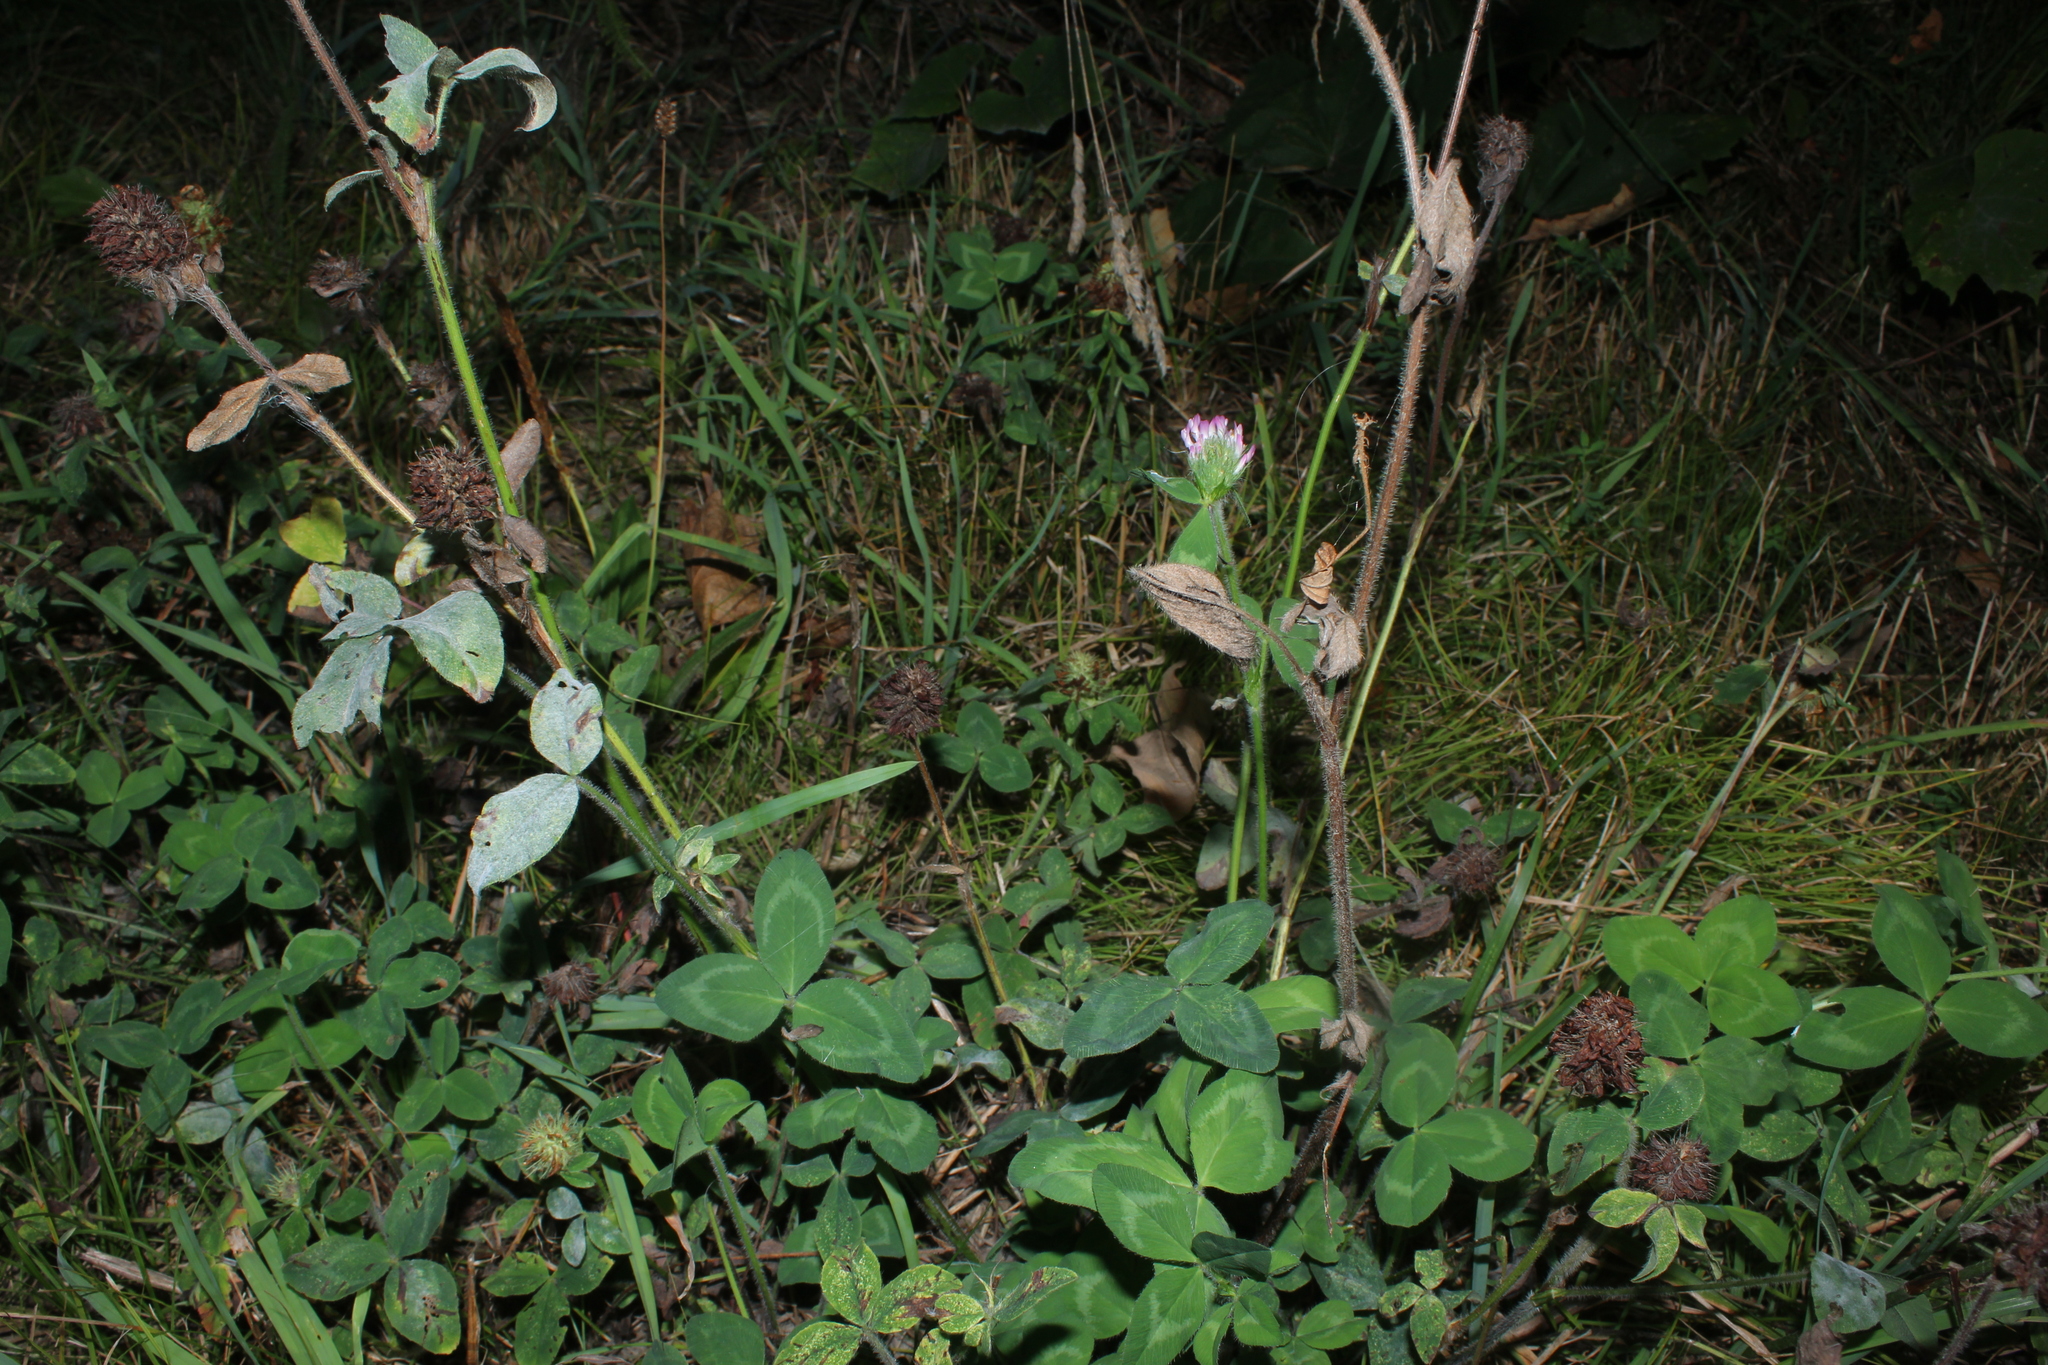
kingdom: Plantae
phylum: Tracheophyta
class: Magnoliopsida
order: Fabales
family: Fabaceae
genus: Trifolium
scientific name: Trifolium pratense
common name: Red clover
